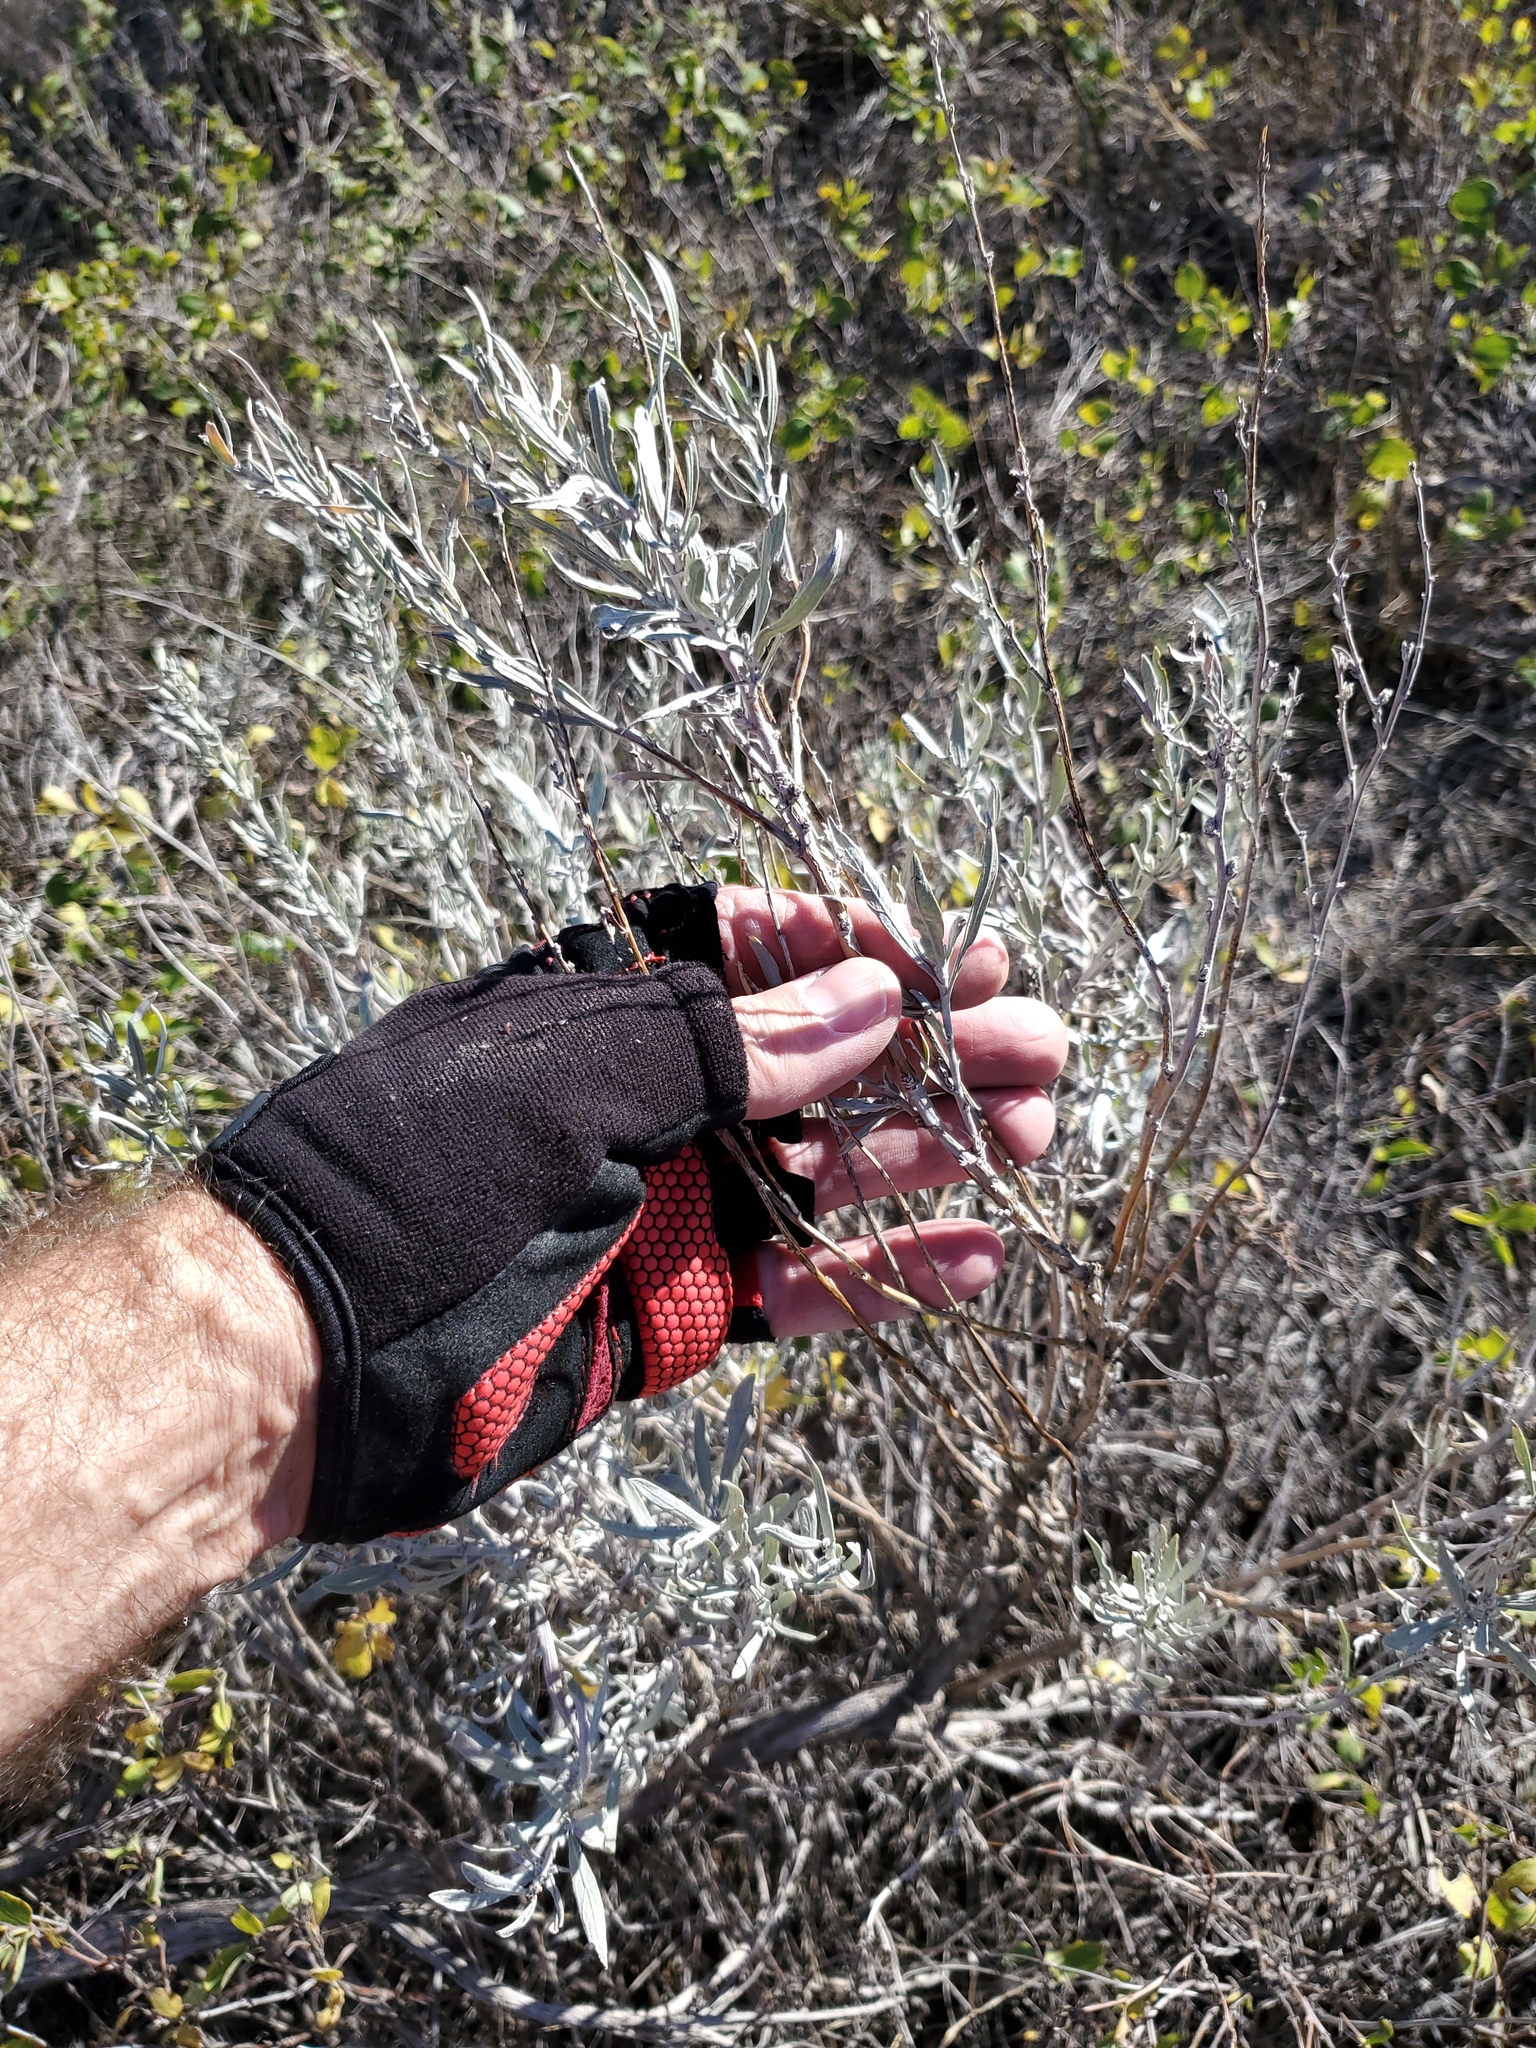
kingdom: Plantae
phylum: Tracheophyta
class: Magnoliopsida
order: Asterales
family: Asteraceae
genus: Artemisia
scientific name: Artemisia cana
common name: Silver sagebrush
